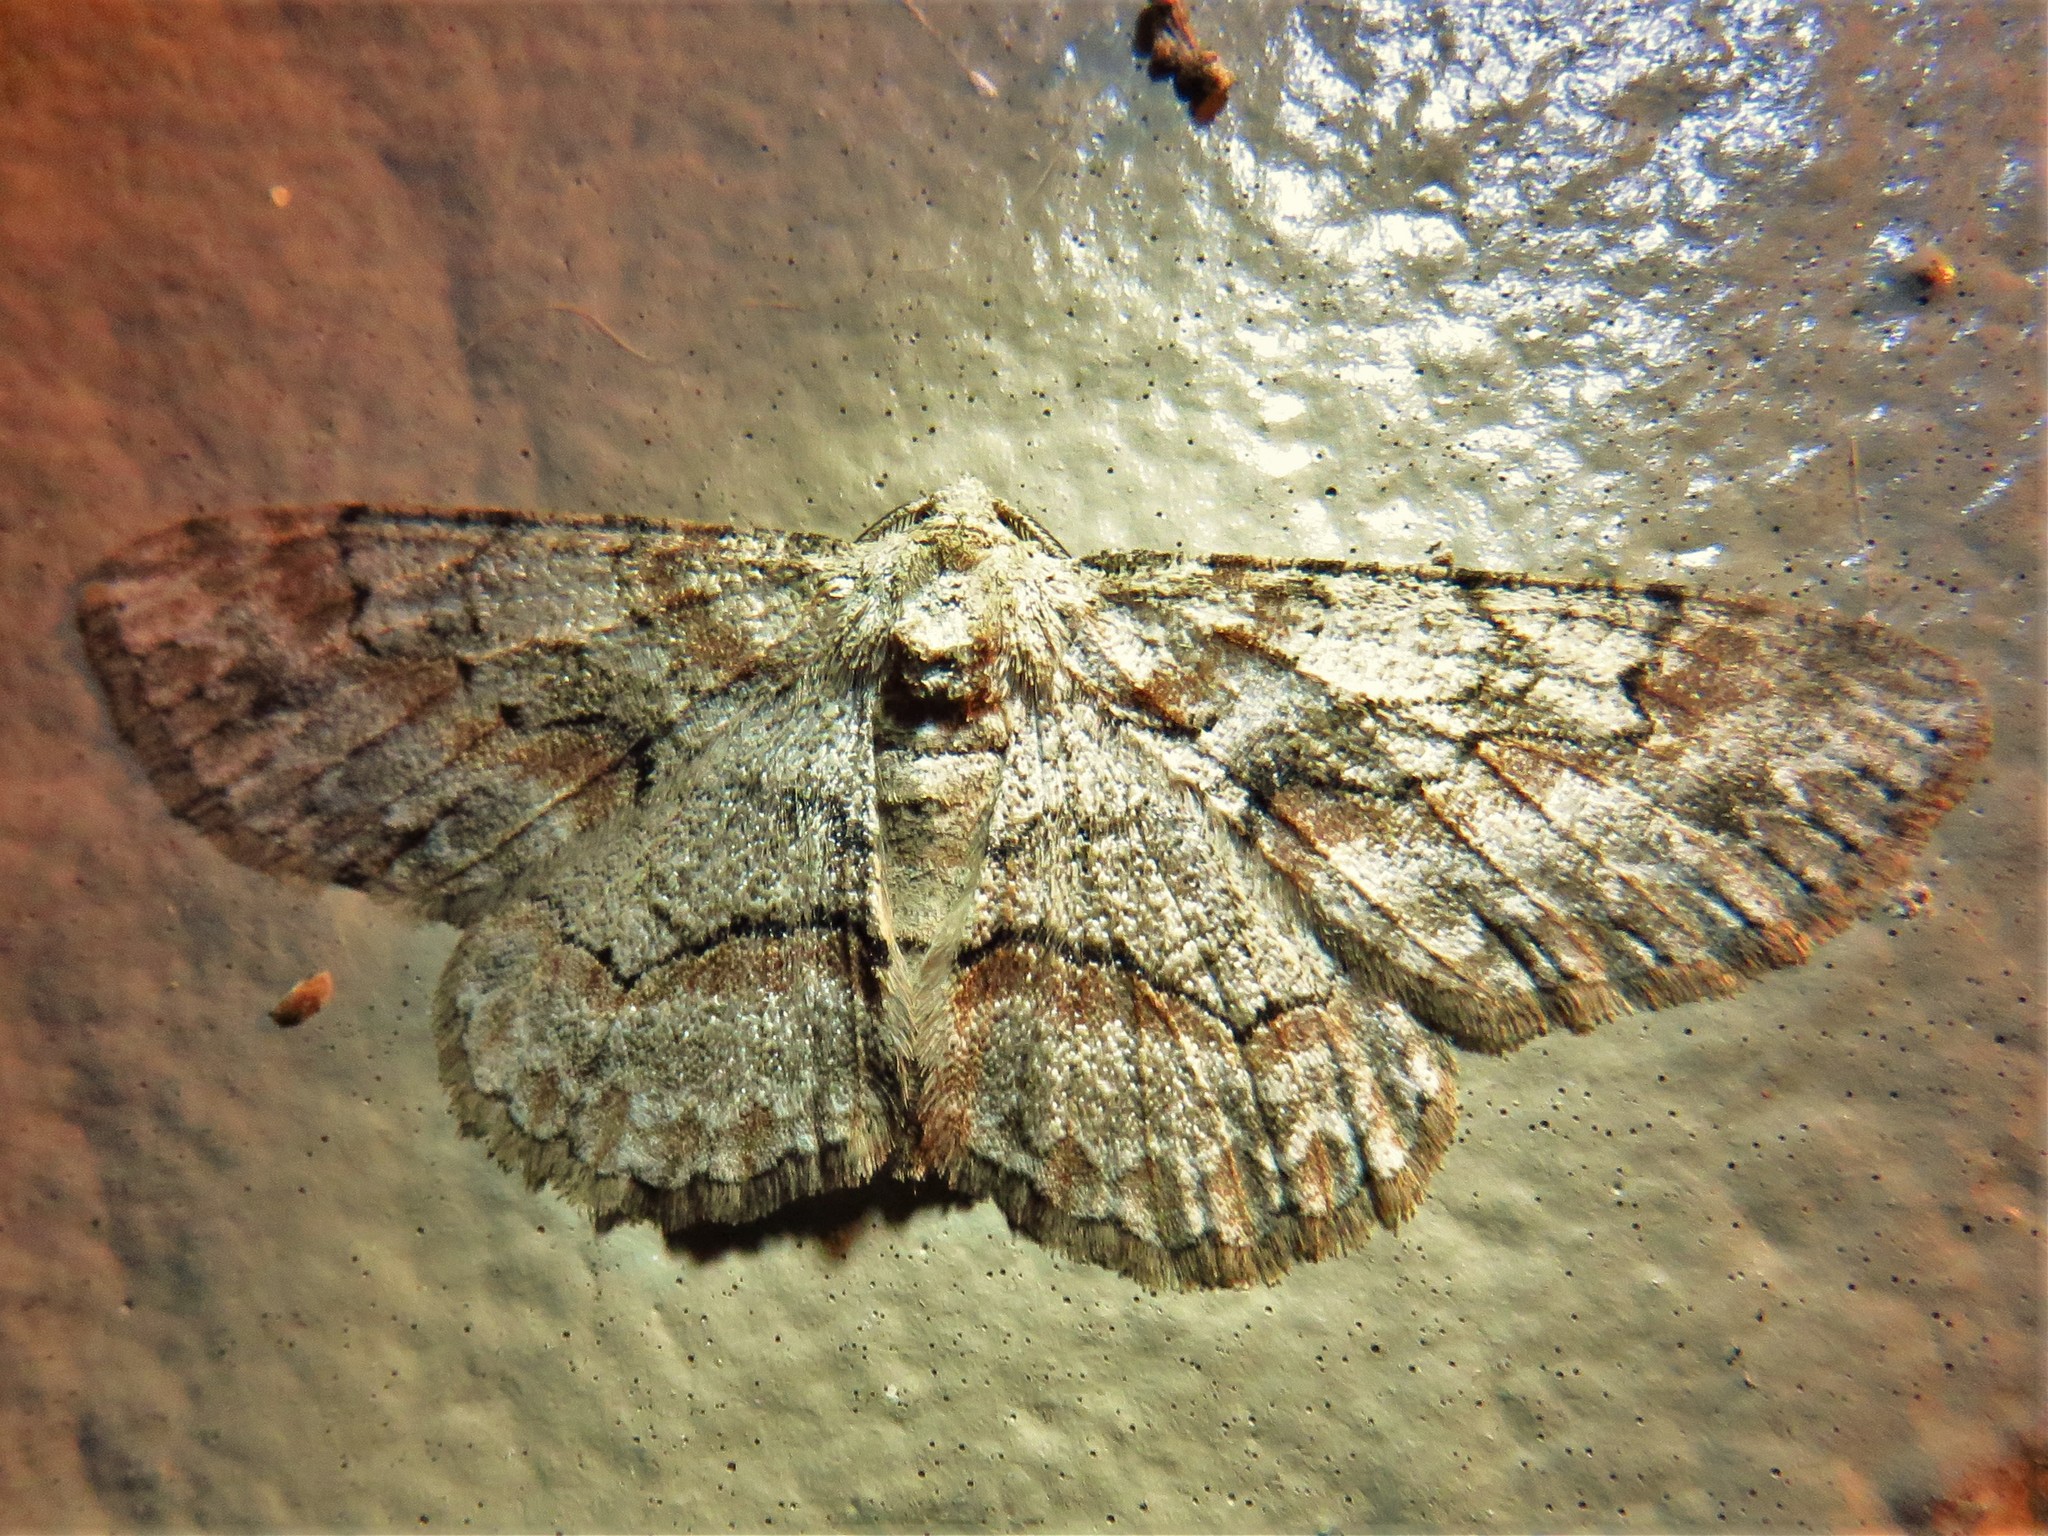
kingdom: Animalia
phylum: Arthropoda
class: Insecta
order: Lepidoptera
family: Geometridae
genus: Iridopsis
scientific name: Iridopsis defectaria
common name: Brown-shaded gray
